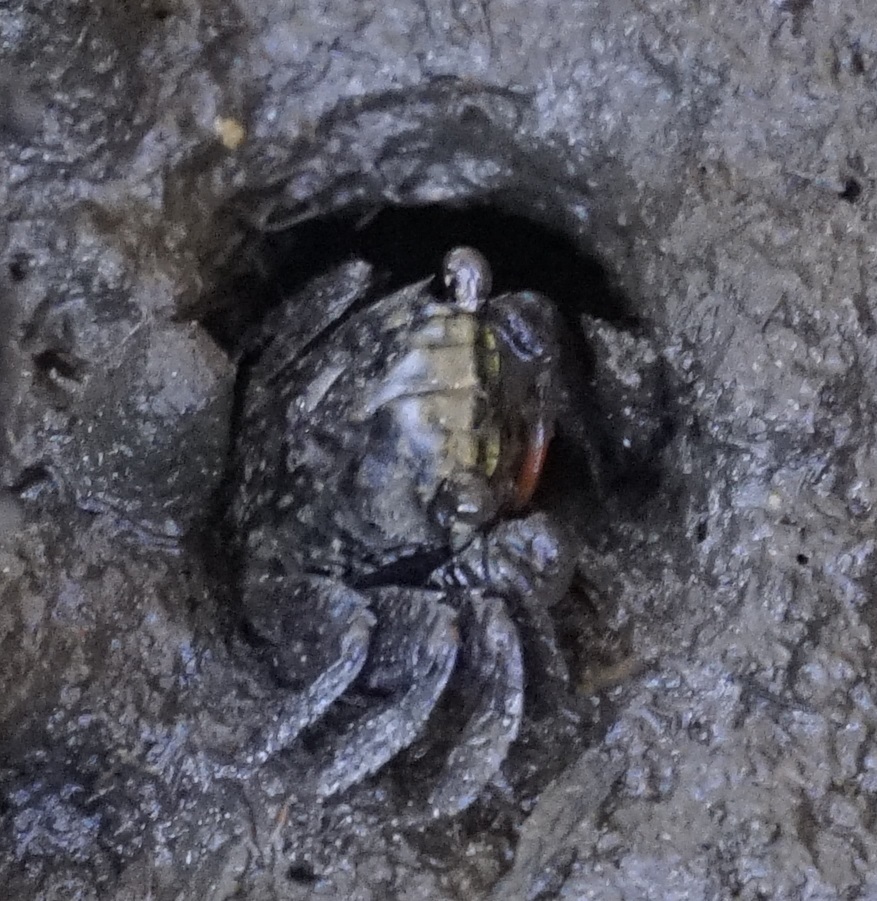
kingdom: Animalia
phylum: Arthropoda
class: Malacostraca
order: Decapoda
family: Sesarmidae
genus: Parasesarma
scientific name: Parasesarma erythodactylum
